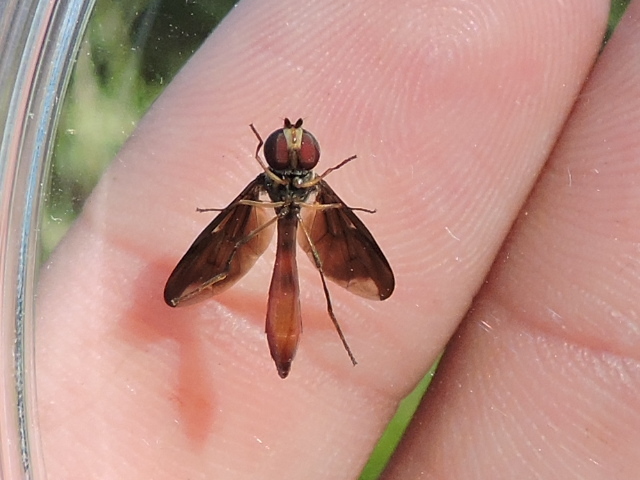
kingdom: Animalia
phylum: Arthropoda
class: Insecta
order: Diptera
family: Syrphidae
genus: Ocyptamus
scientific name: Ocyptamus fuscipennis
